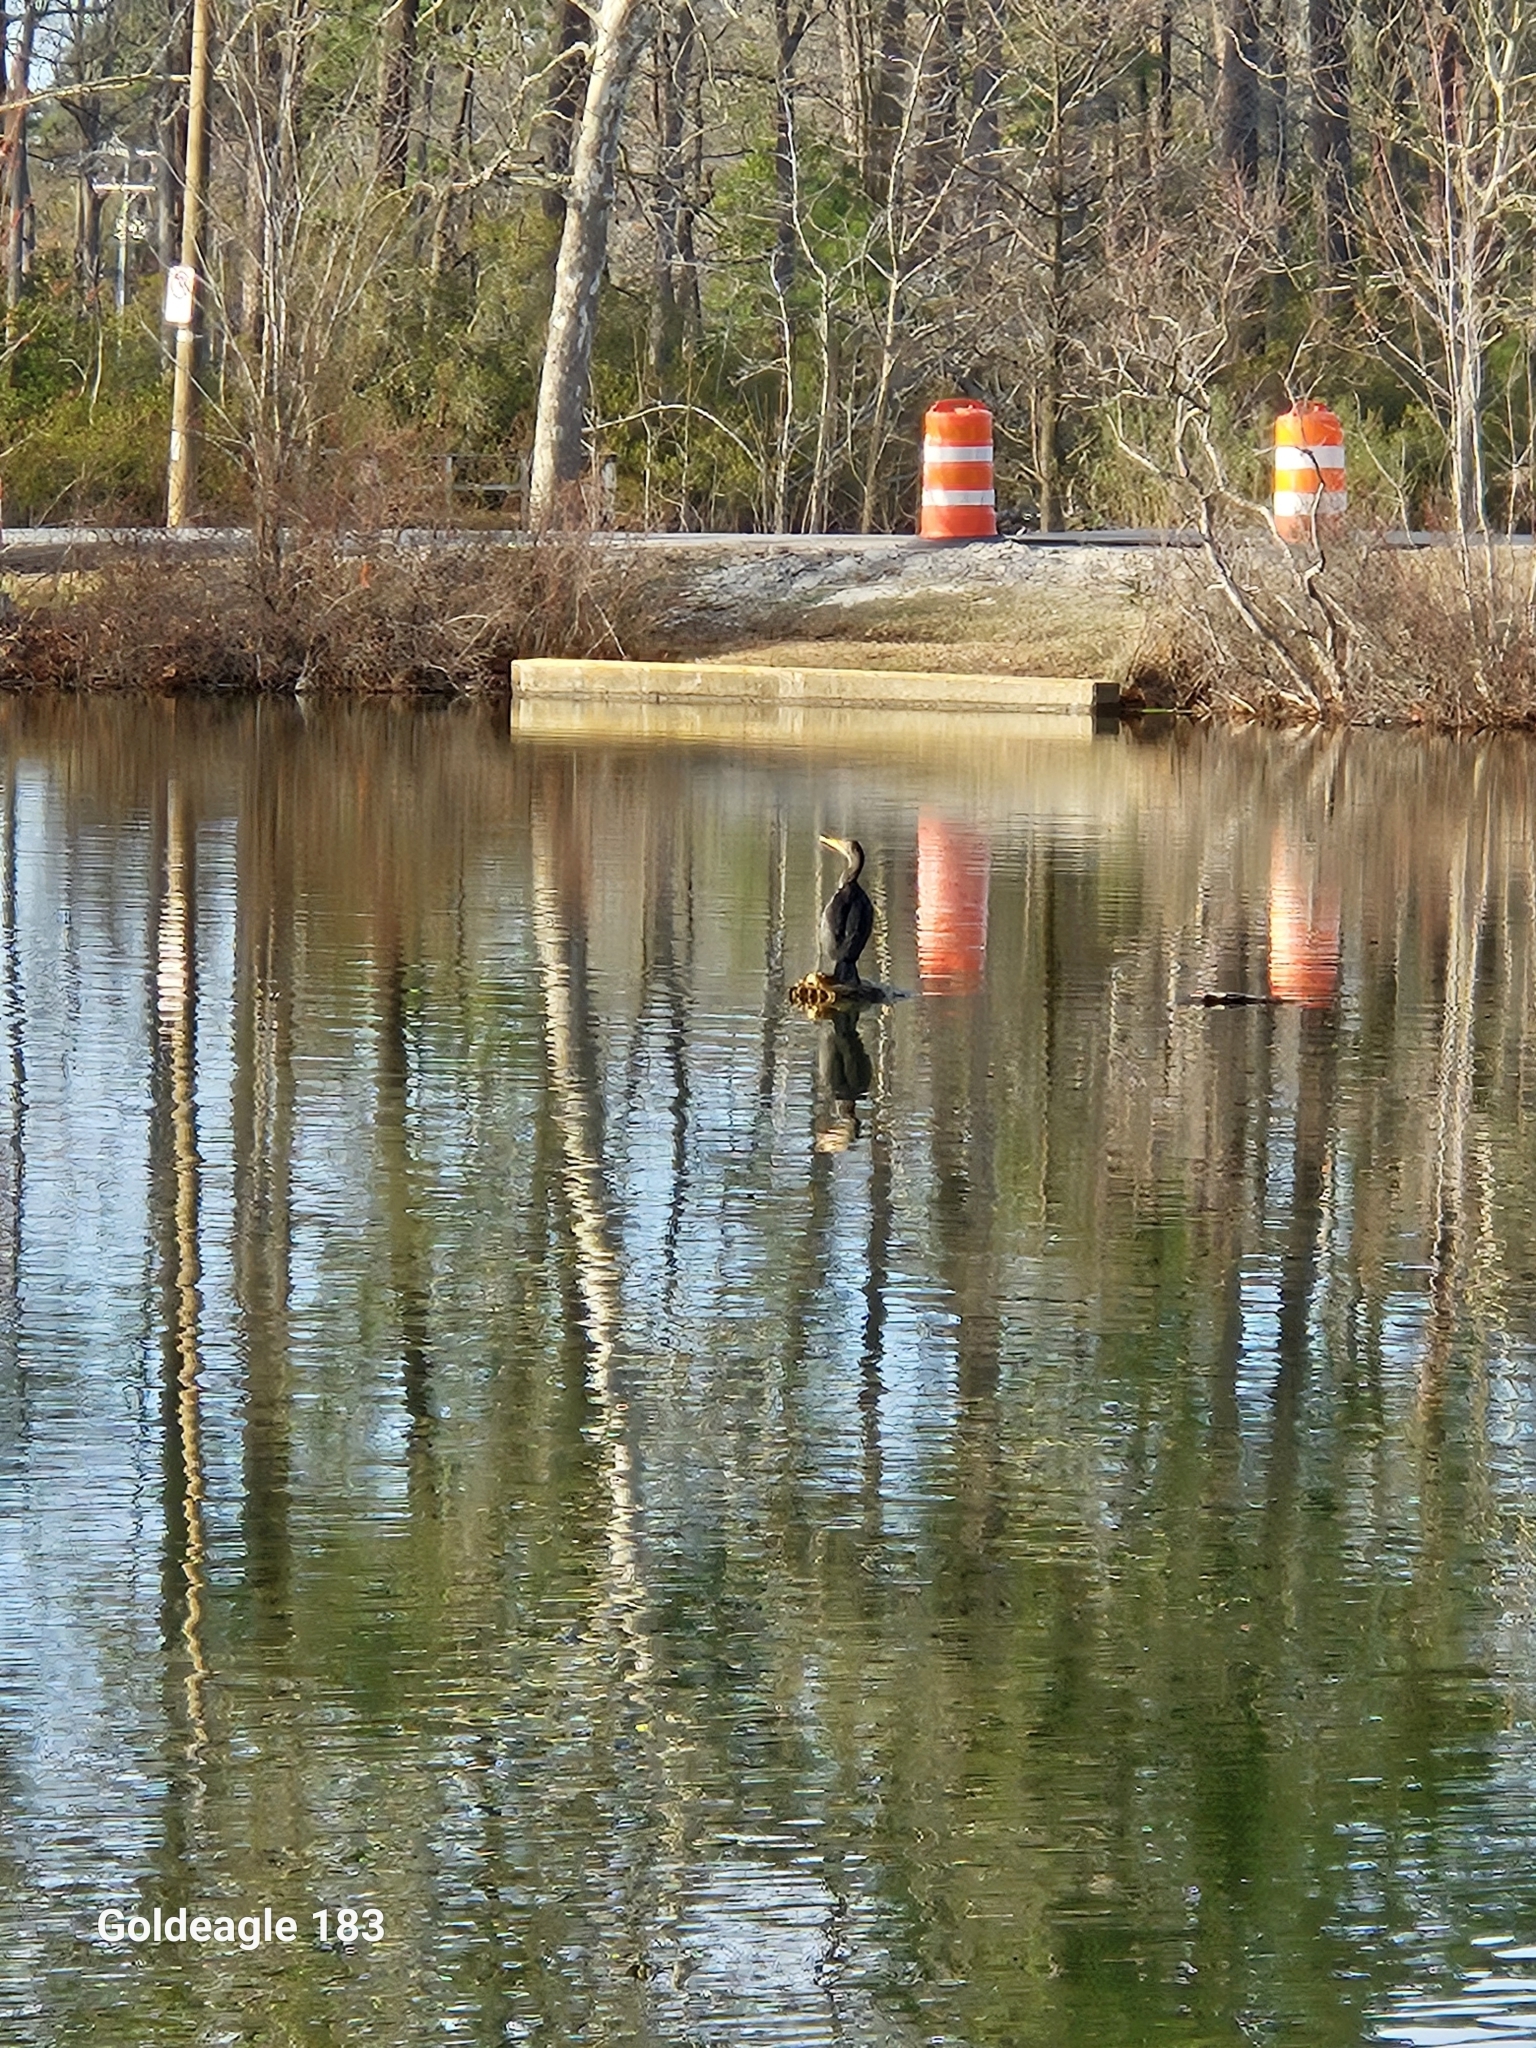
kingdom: Animalia
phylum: Chordata
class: Aves
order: Suliformes
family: Phalacrocoracidae
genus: Phalacrocorax
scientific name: Phalacrocorax auritus
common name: Double-crested cormorant
